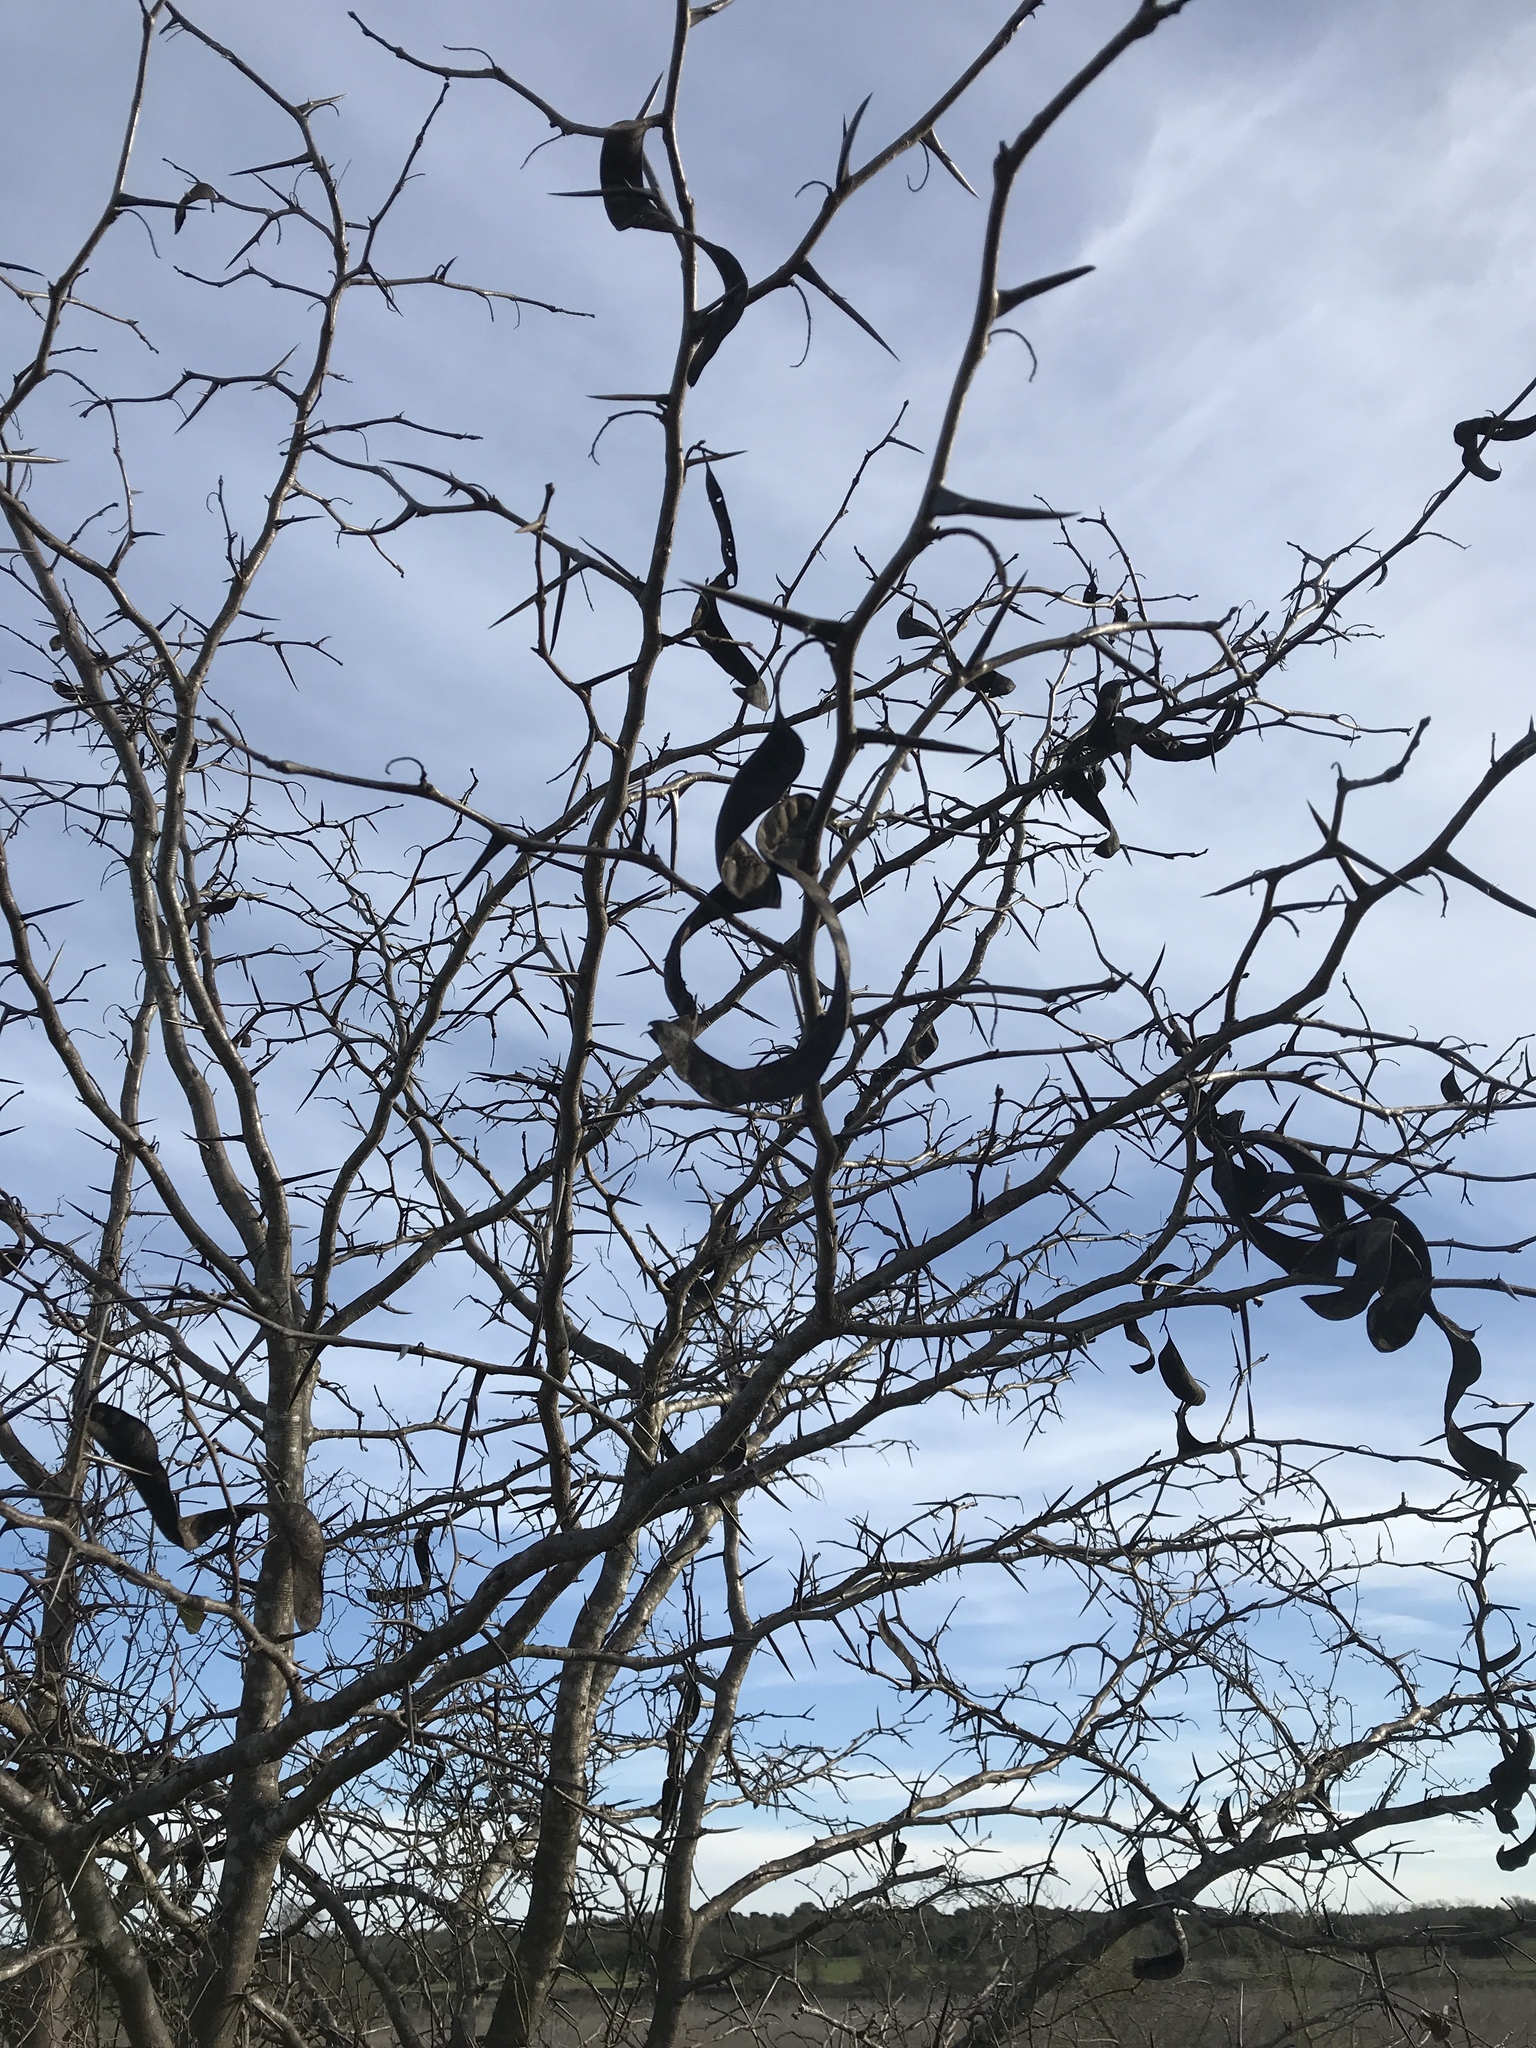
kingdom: Plantae
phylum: Tracheophyta
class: Magnoliopsida
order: Fabales
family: Fabaceae
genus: Gleditsia
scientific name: Gleditsia triacanthos
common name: Common honeylocust
